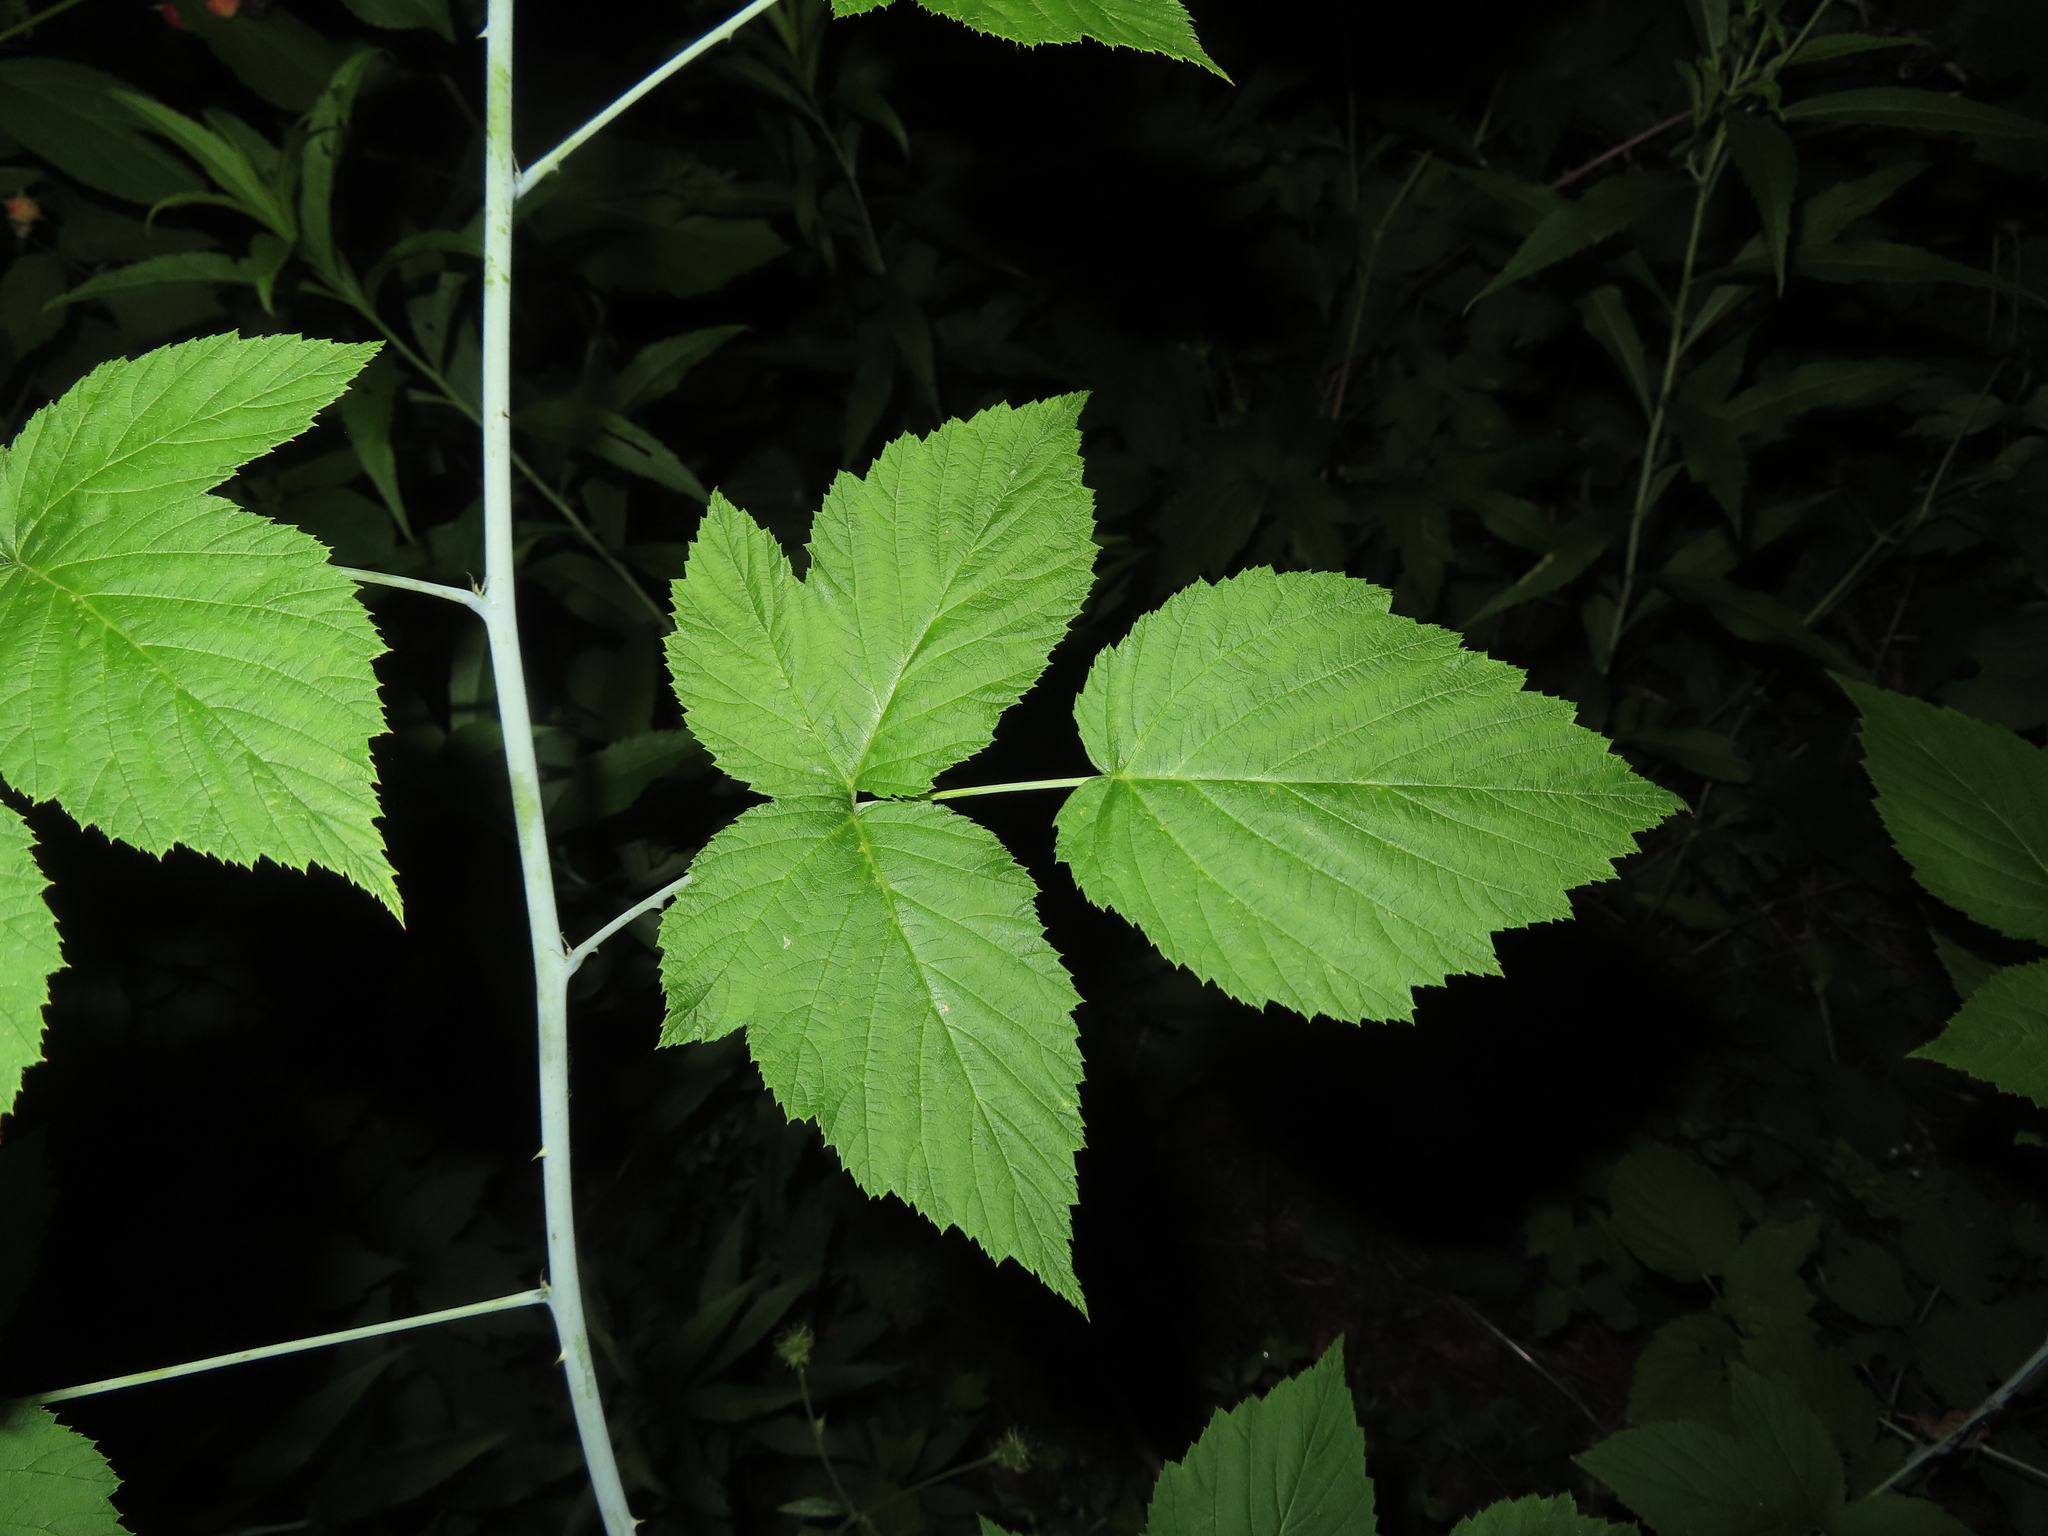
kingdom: Plantae
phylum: Tracheophyta
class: Magnoliopsida
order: Rosales
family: Rosaceae
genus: Rubus
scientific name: Rubus occidentalis
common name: Black raspberry
